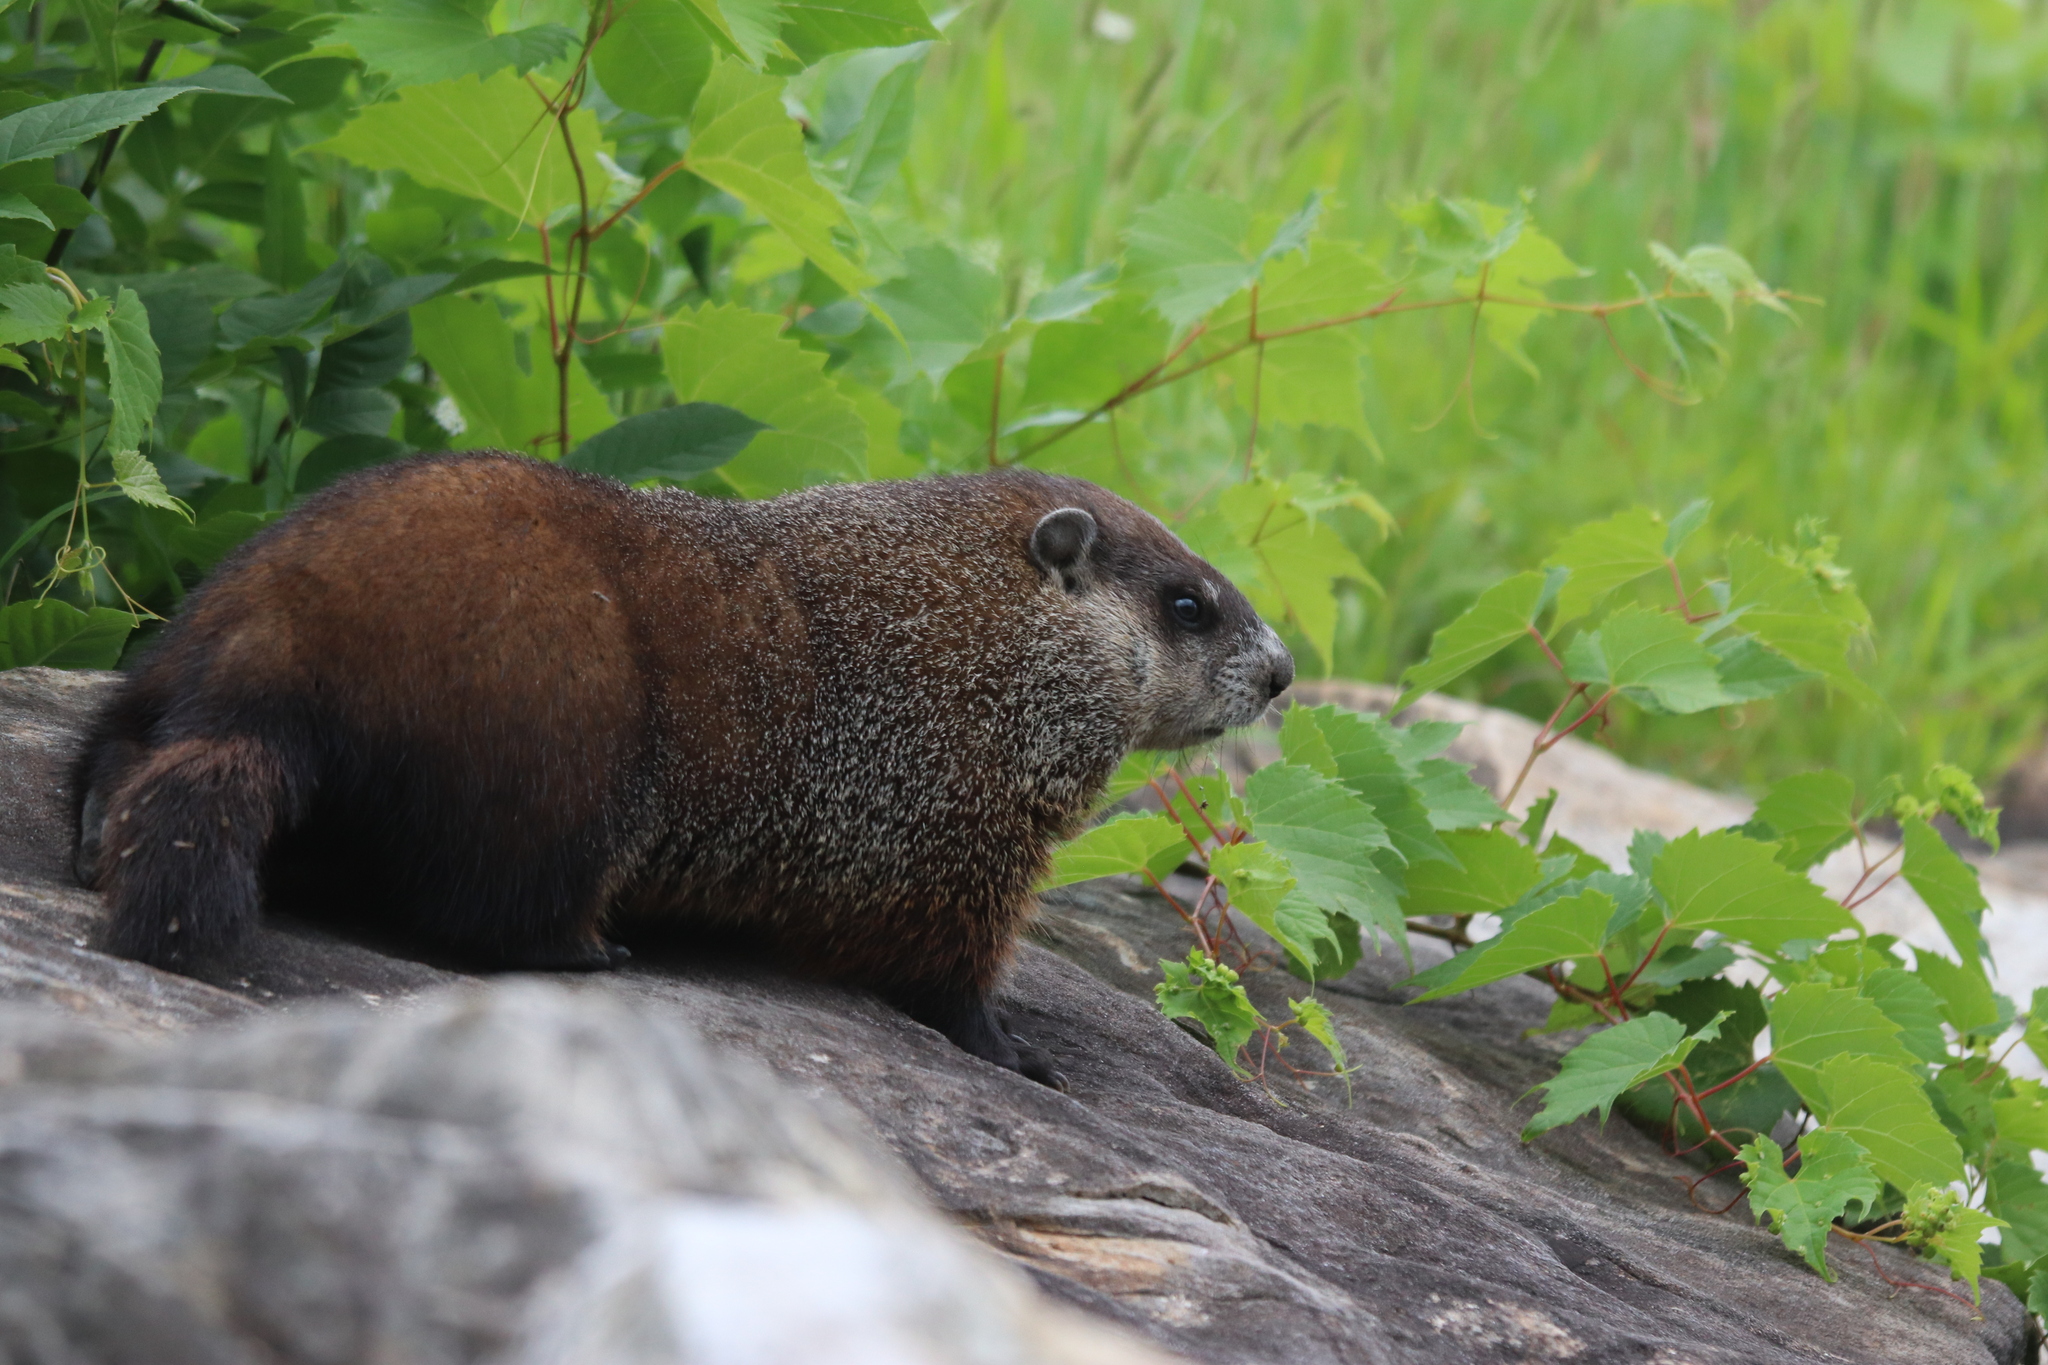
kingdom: Animalia
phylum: Chordata
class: Mammalia
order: Rodentia
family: Sciuridae
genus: Marmota
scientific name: Marmota monax
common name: Groundhog
